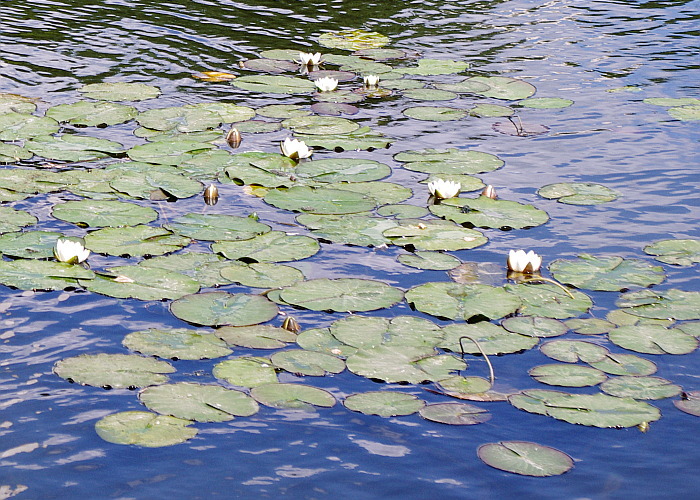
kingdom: Plantae
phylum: Tracheophyta
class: Magnoliopsida
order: Nymphaeales
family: Nymphaeaceae
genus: Nymphaea
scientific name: Nymphaea candida
